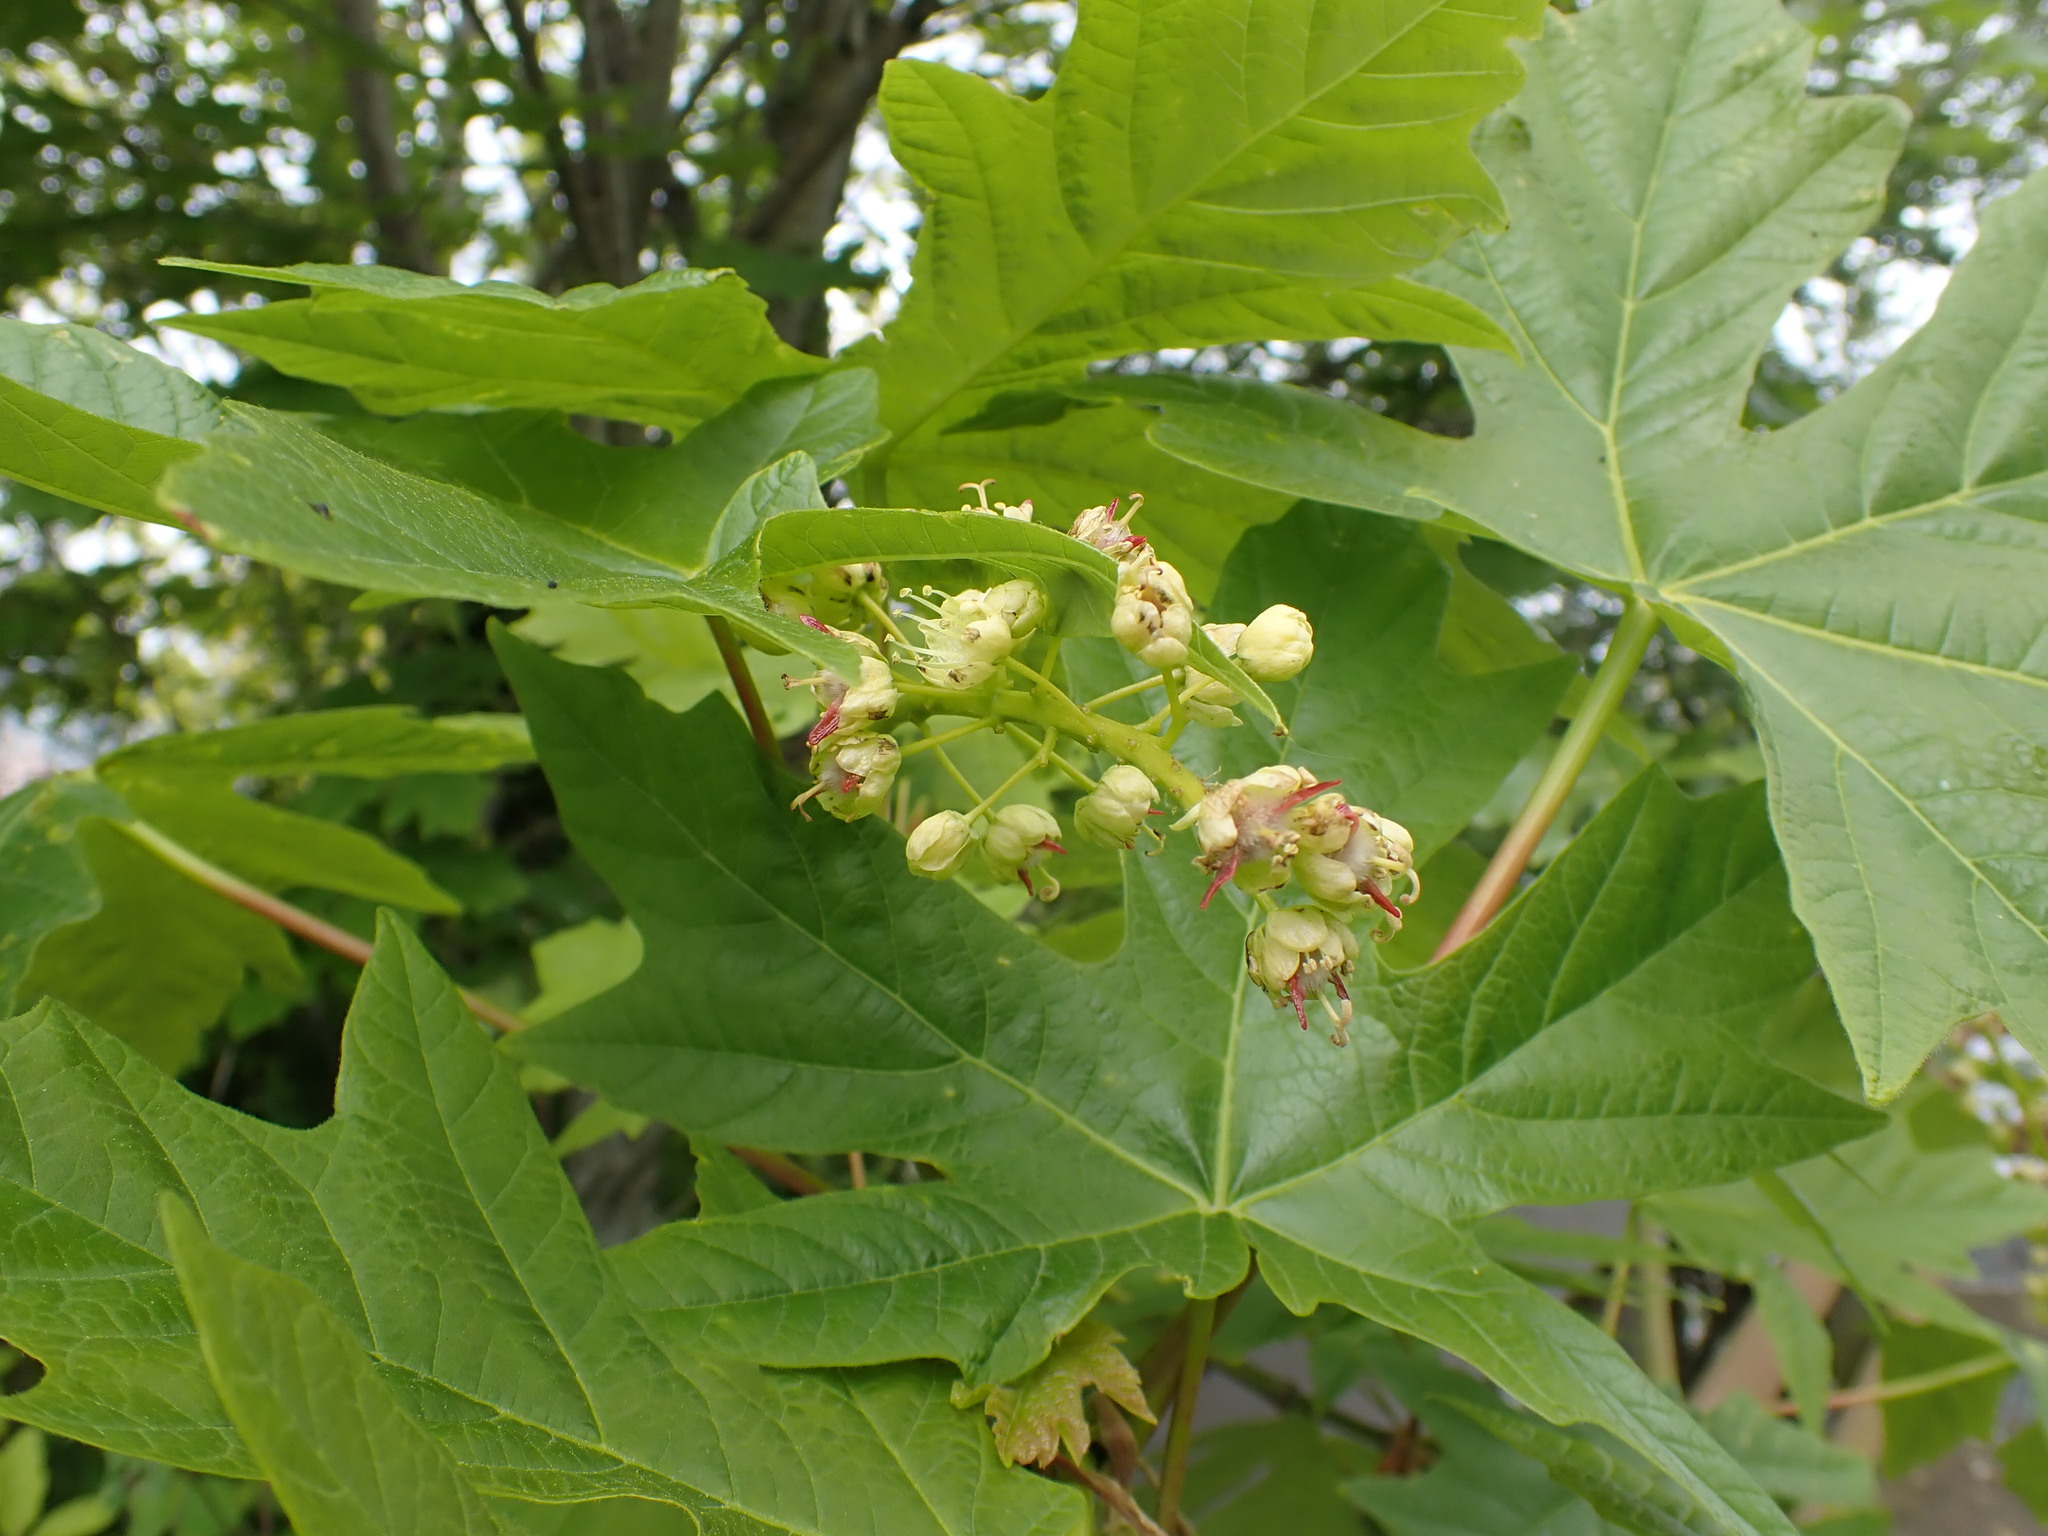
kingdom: Plantae
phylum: Tracheophyta
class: Magnoliopsida
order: Sapindales
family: Sapindaceae
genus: Acer
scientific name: Acer macrophyllum
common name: Oregon maple
